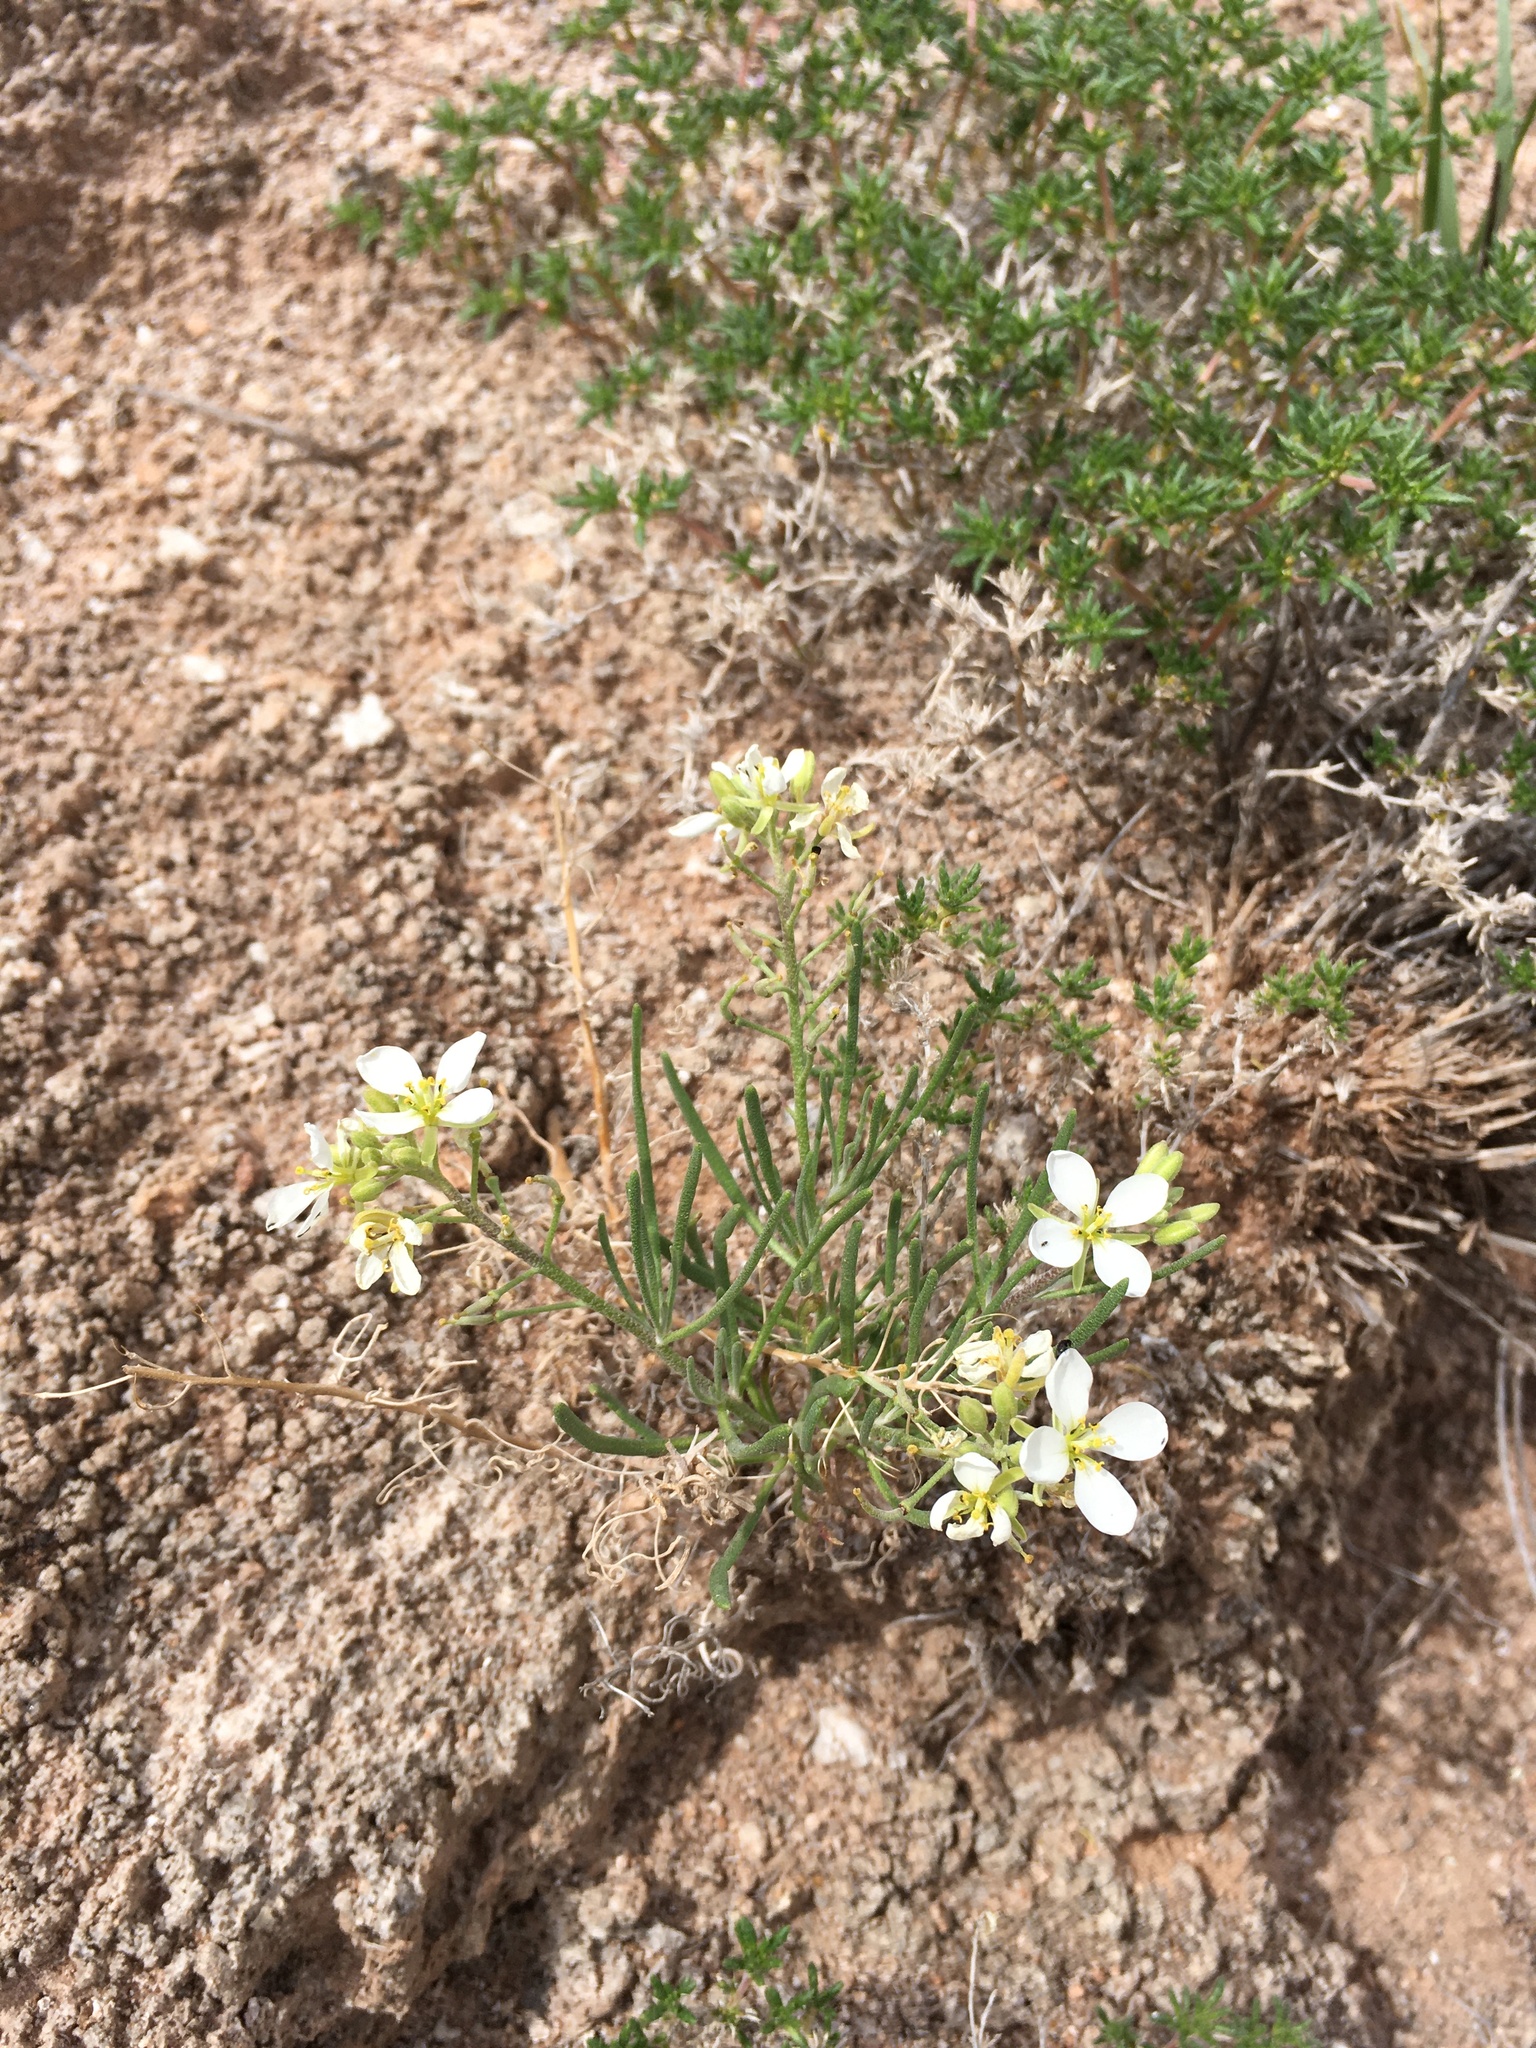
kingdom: Plantae
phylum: Tracheophyta
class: Magnoliopsida
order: Brassicales
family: Brassicaceae
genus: Nerisyrenia
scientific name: Nerisyrenia linearifolia
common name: White sands fan mustard
